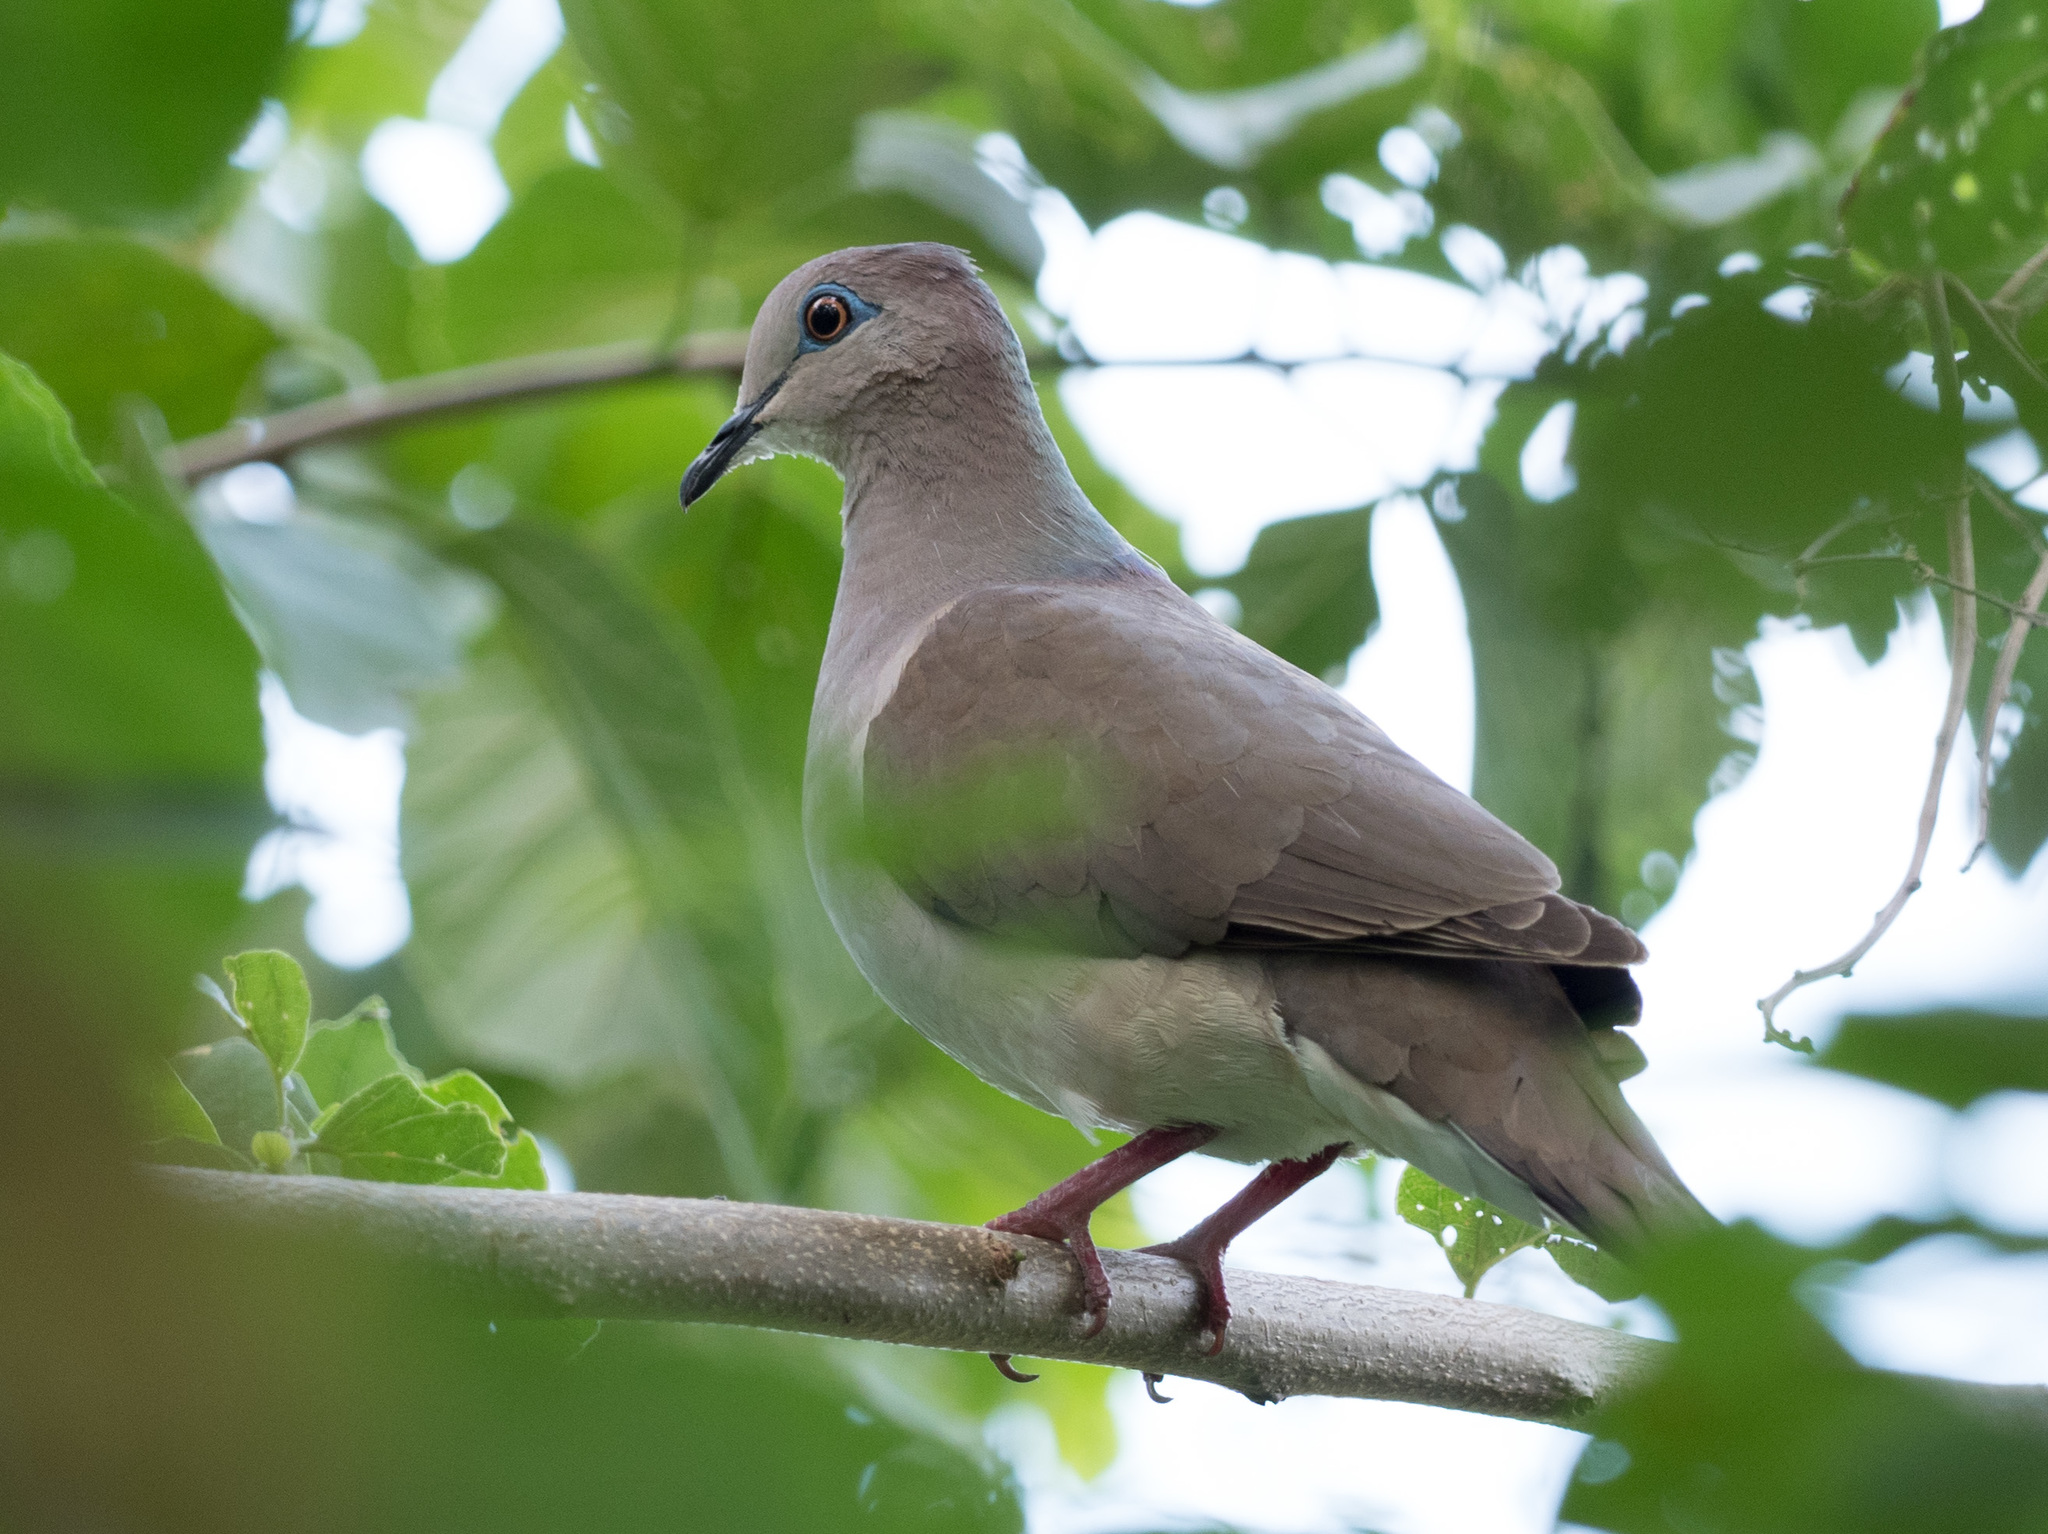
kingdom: Animalia
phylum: Chordata
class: Aves
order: Columbiformes
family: Columbidae
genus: Leptotila
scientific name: Leptotila verreauxi
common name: White-tipped dove
